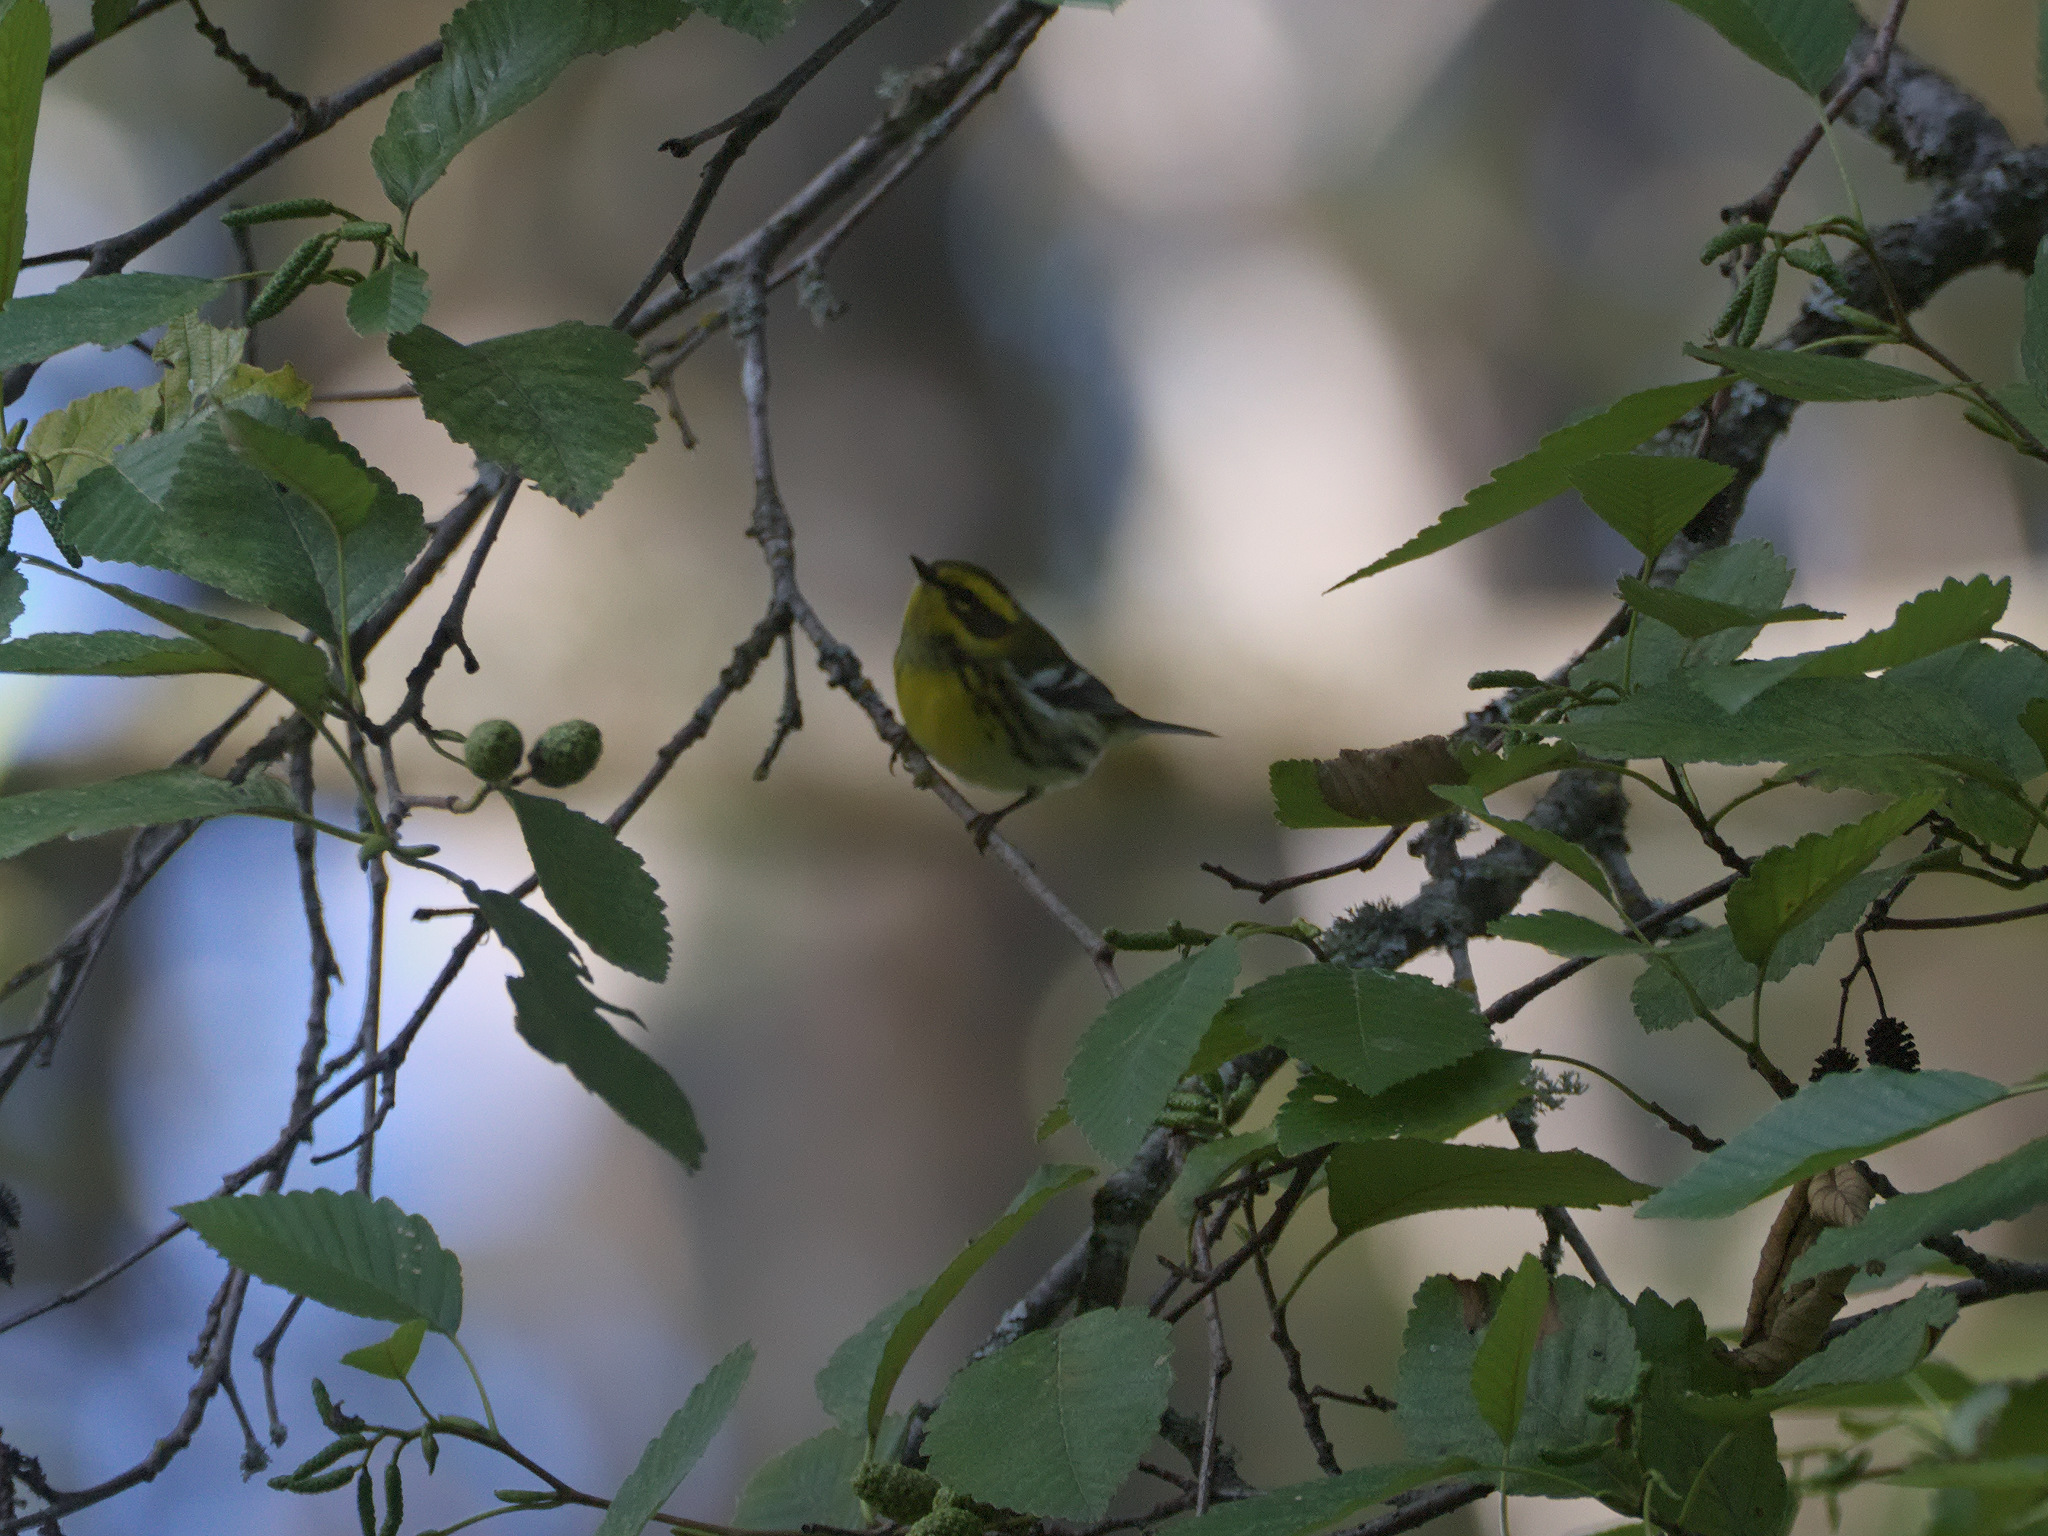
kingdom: Animalia
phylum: Chordata
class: Aves
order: Passeriformes
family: Parulidae
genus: Setophaga
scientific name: Setophaga townsendi
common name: Townsend's warbler
